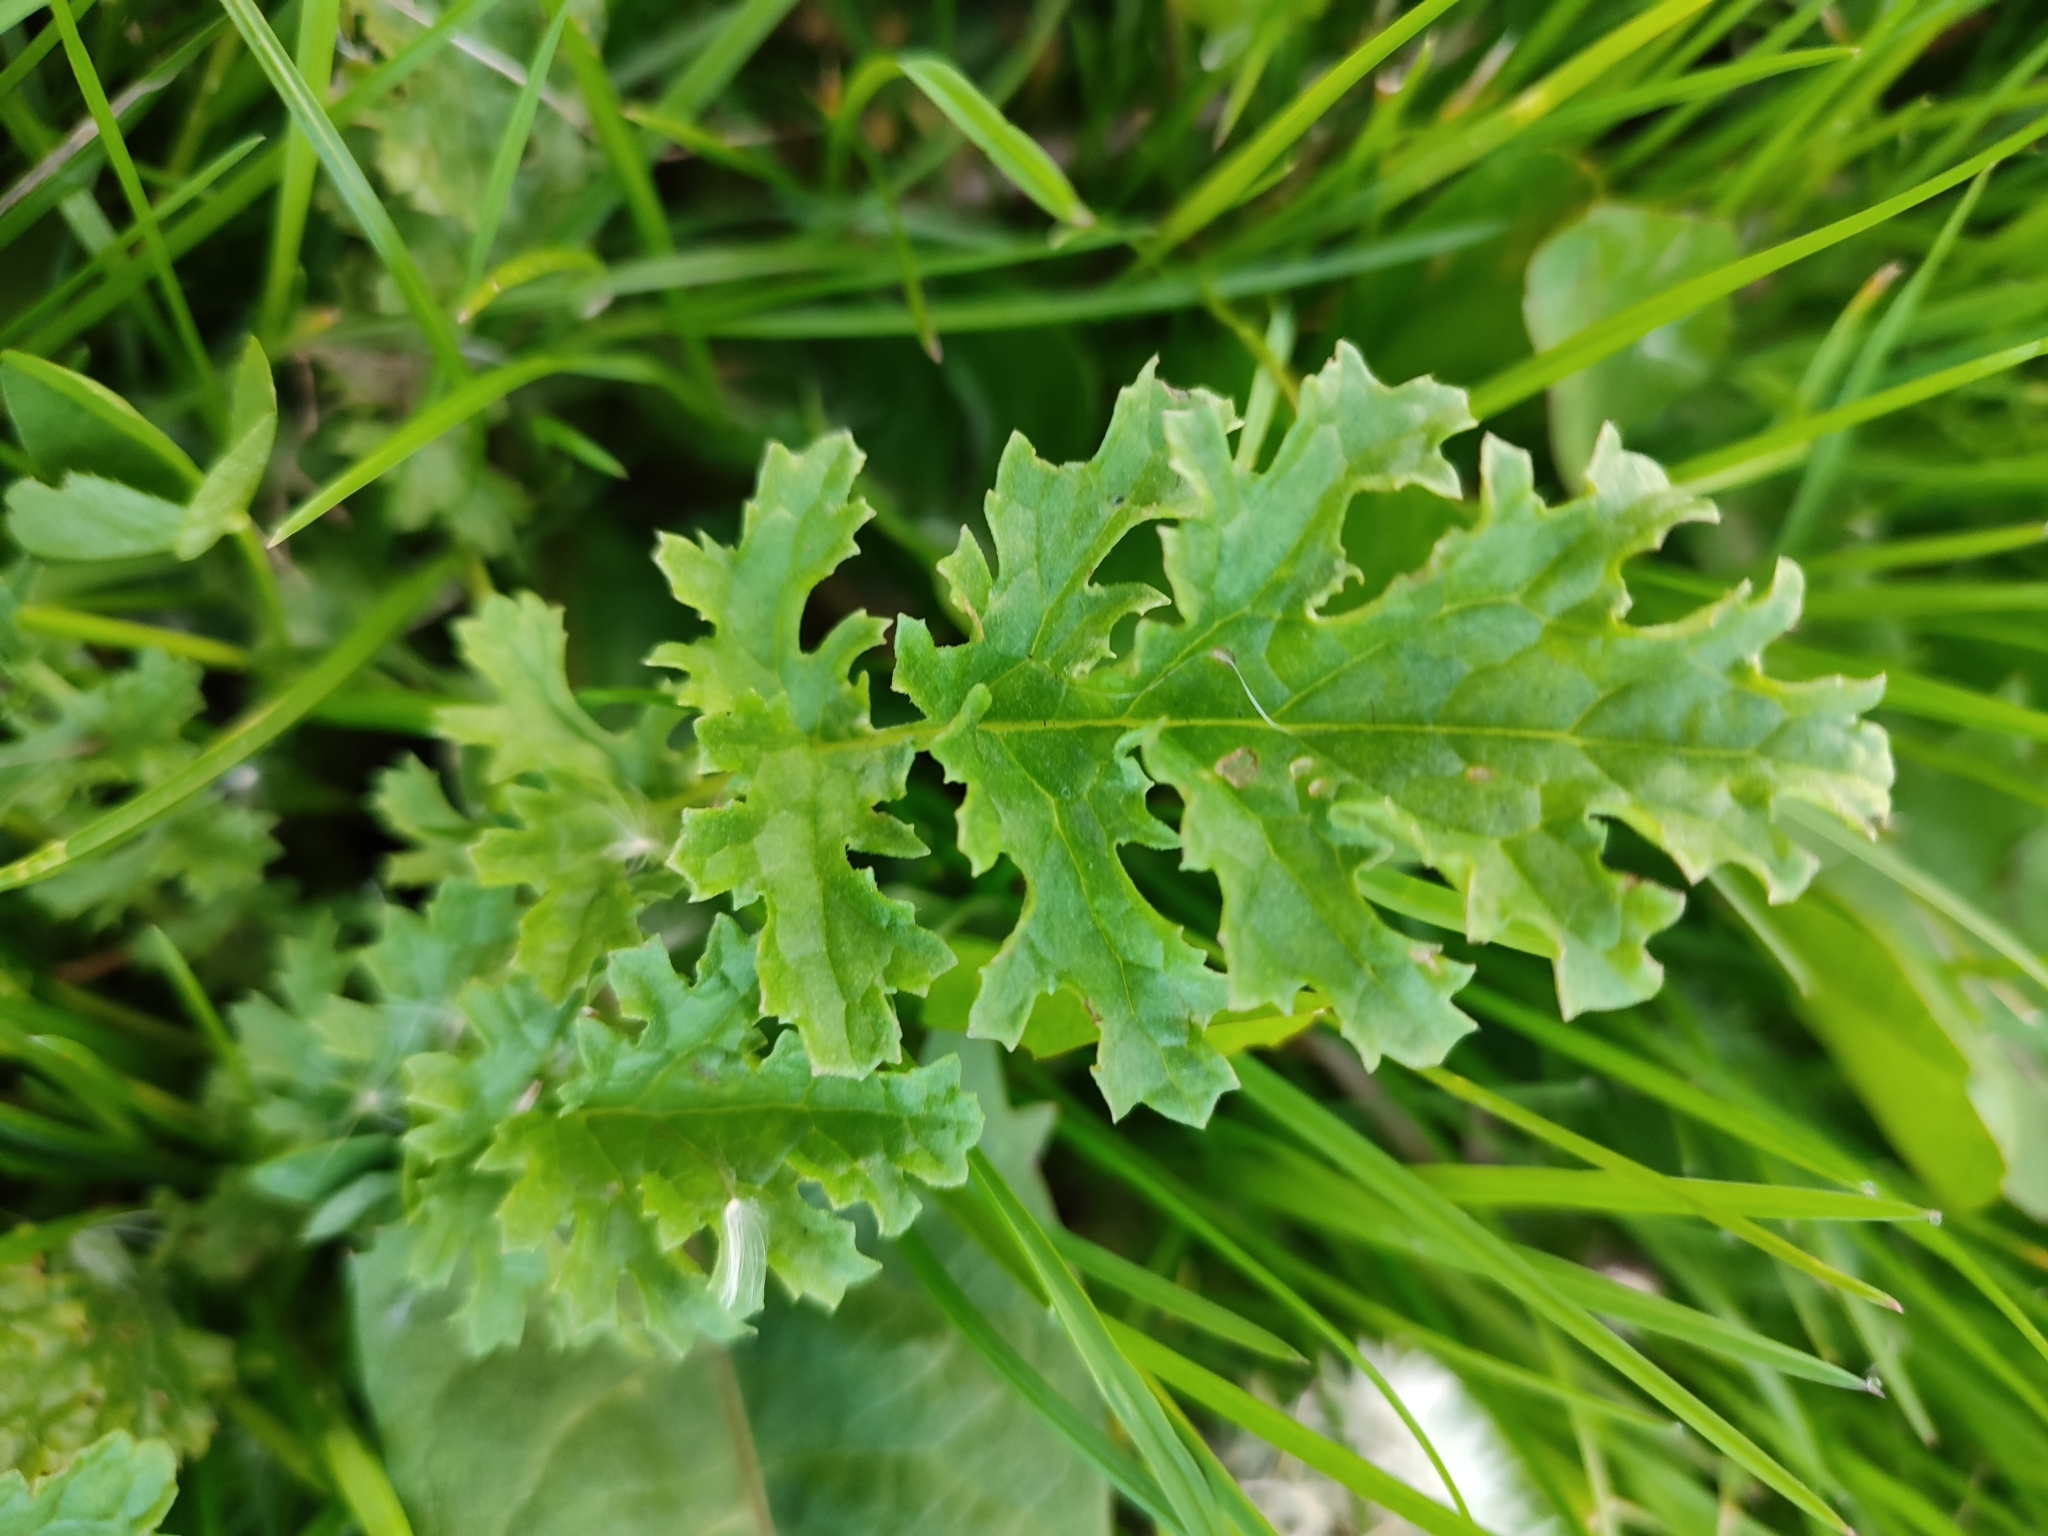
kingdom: Plantae
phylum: Tracheophyta
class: Magnoliopsida
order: Asterales
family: Asteraceae
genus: Jacobaea
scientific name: Jacobaea vulgaris
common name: Stinking willie
